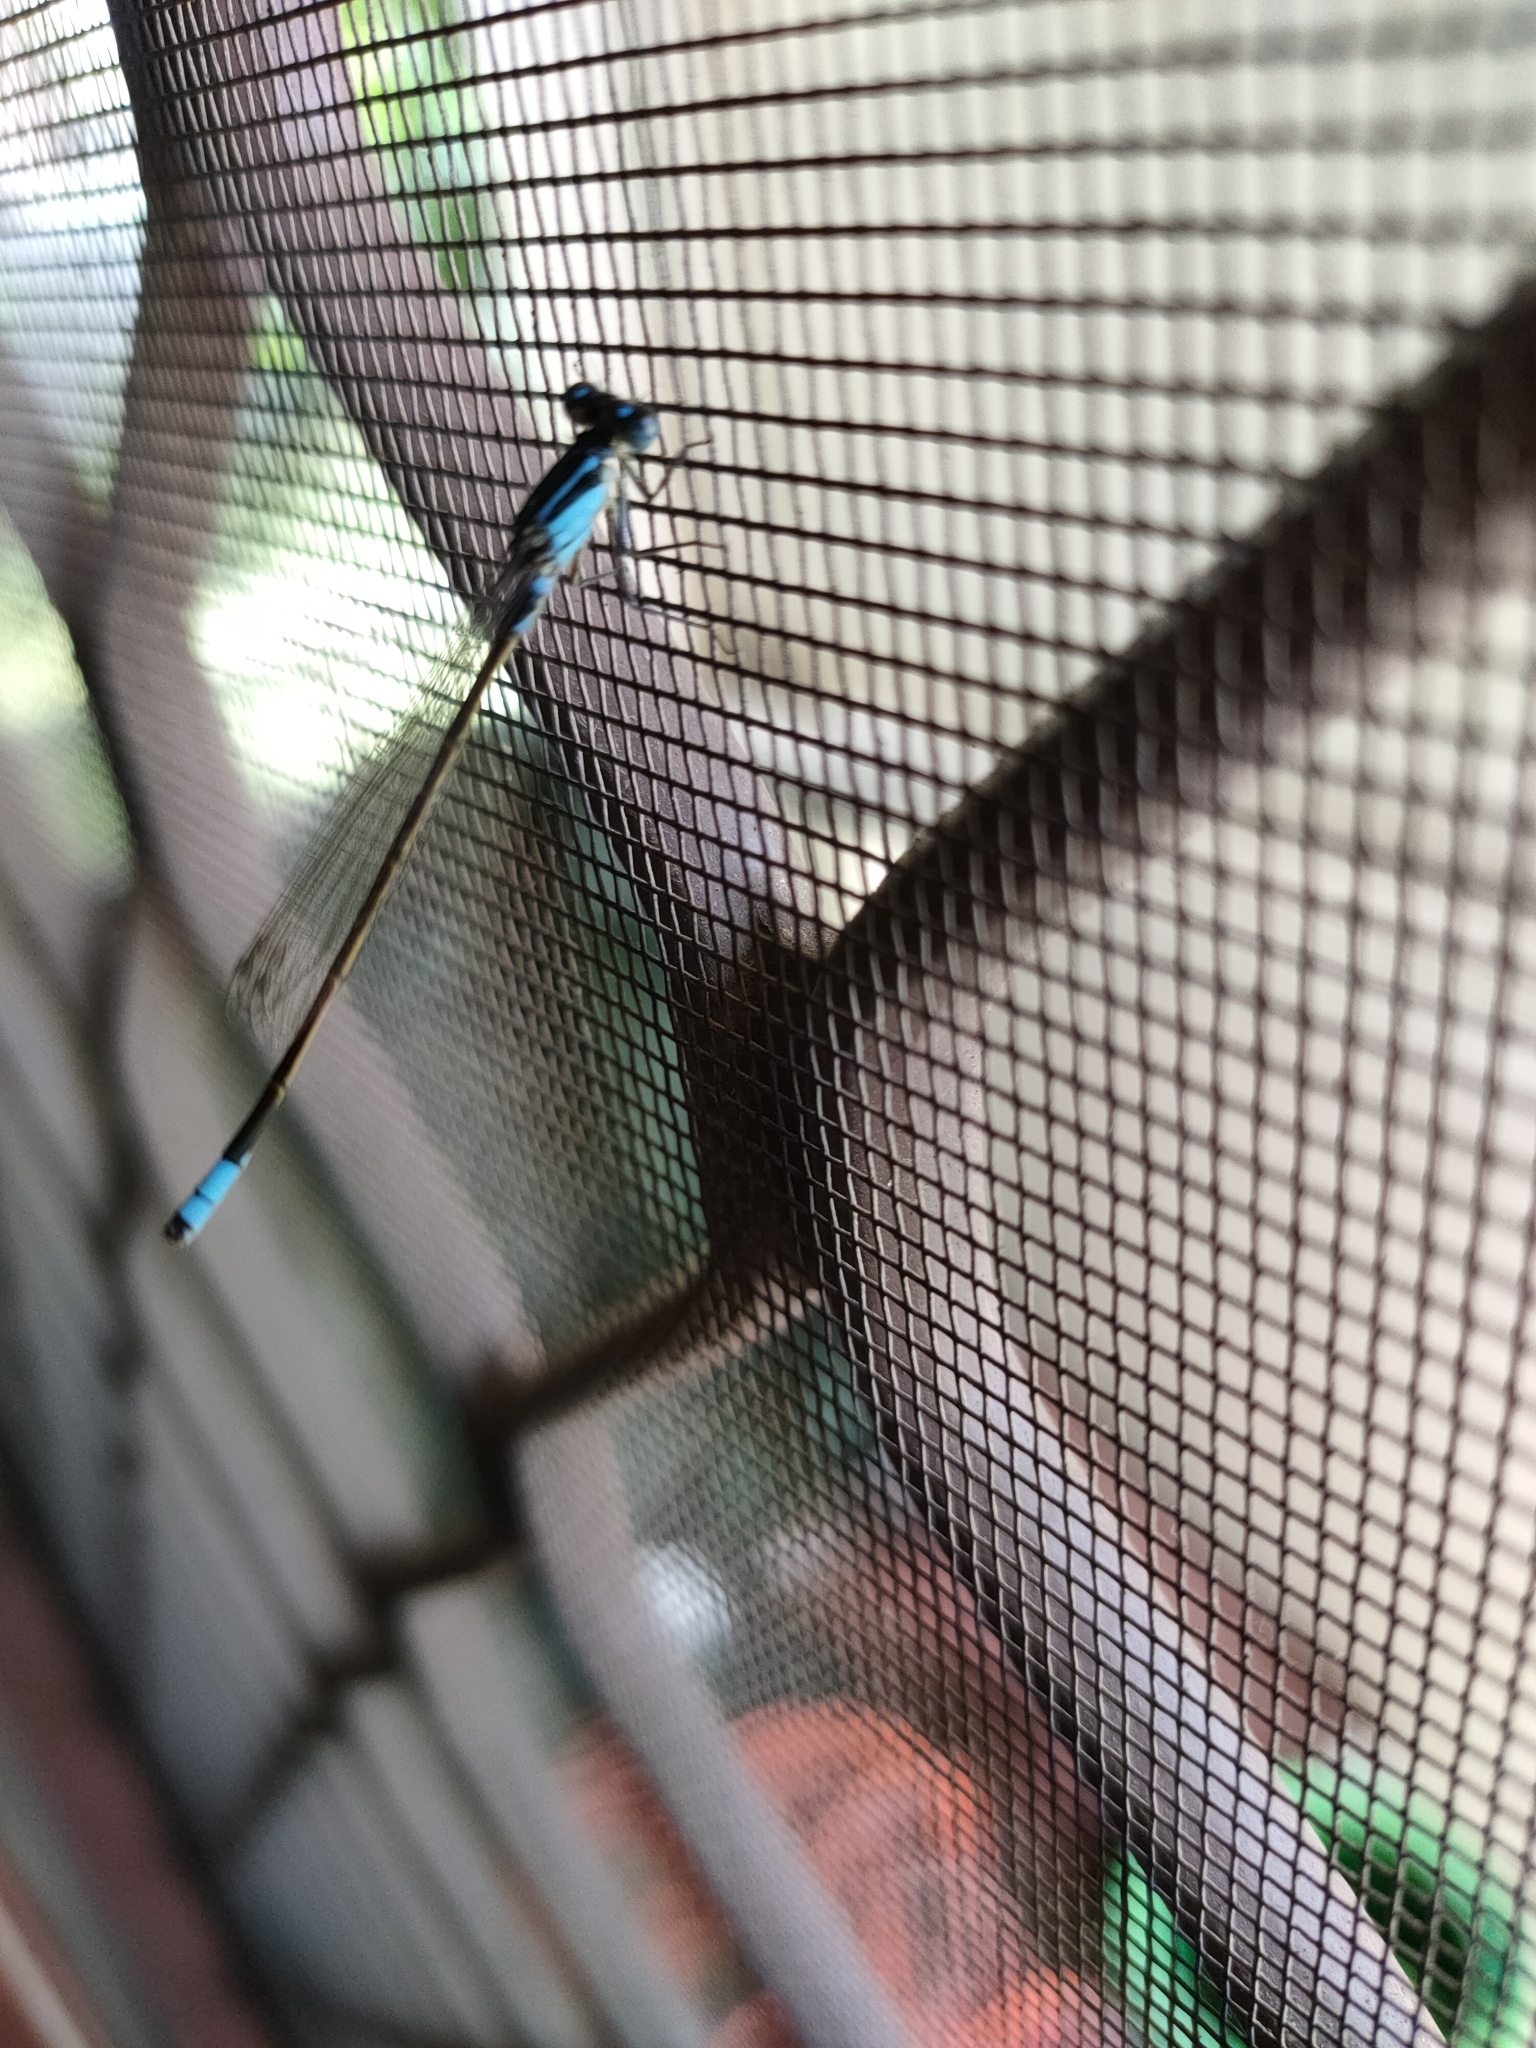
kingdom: Animalia
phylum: Arthropoda
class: Insecta
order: Odonata
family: Coenagrionidae
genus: Ischnura
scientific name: Ischnura heterosticta
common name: Common bluetail
